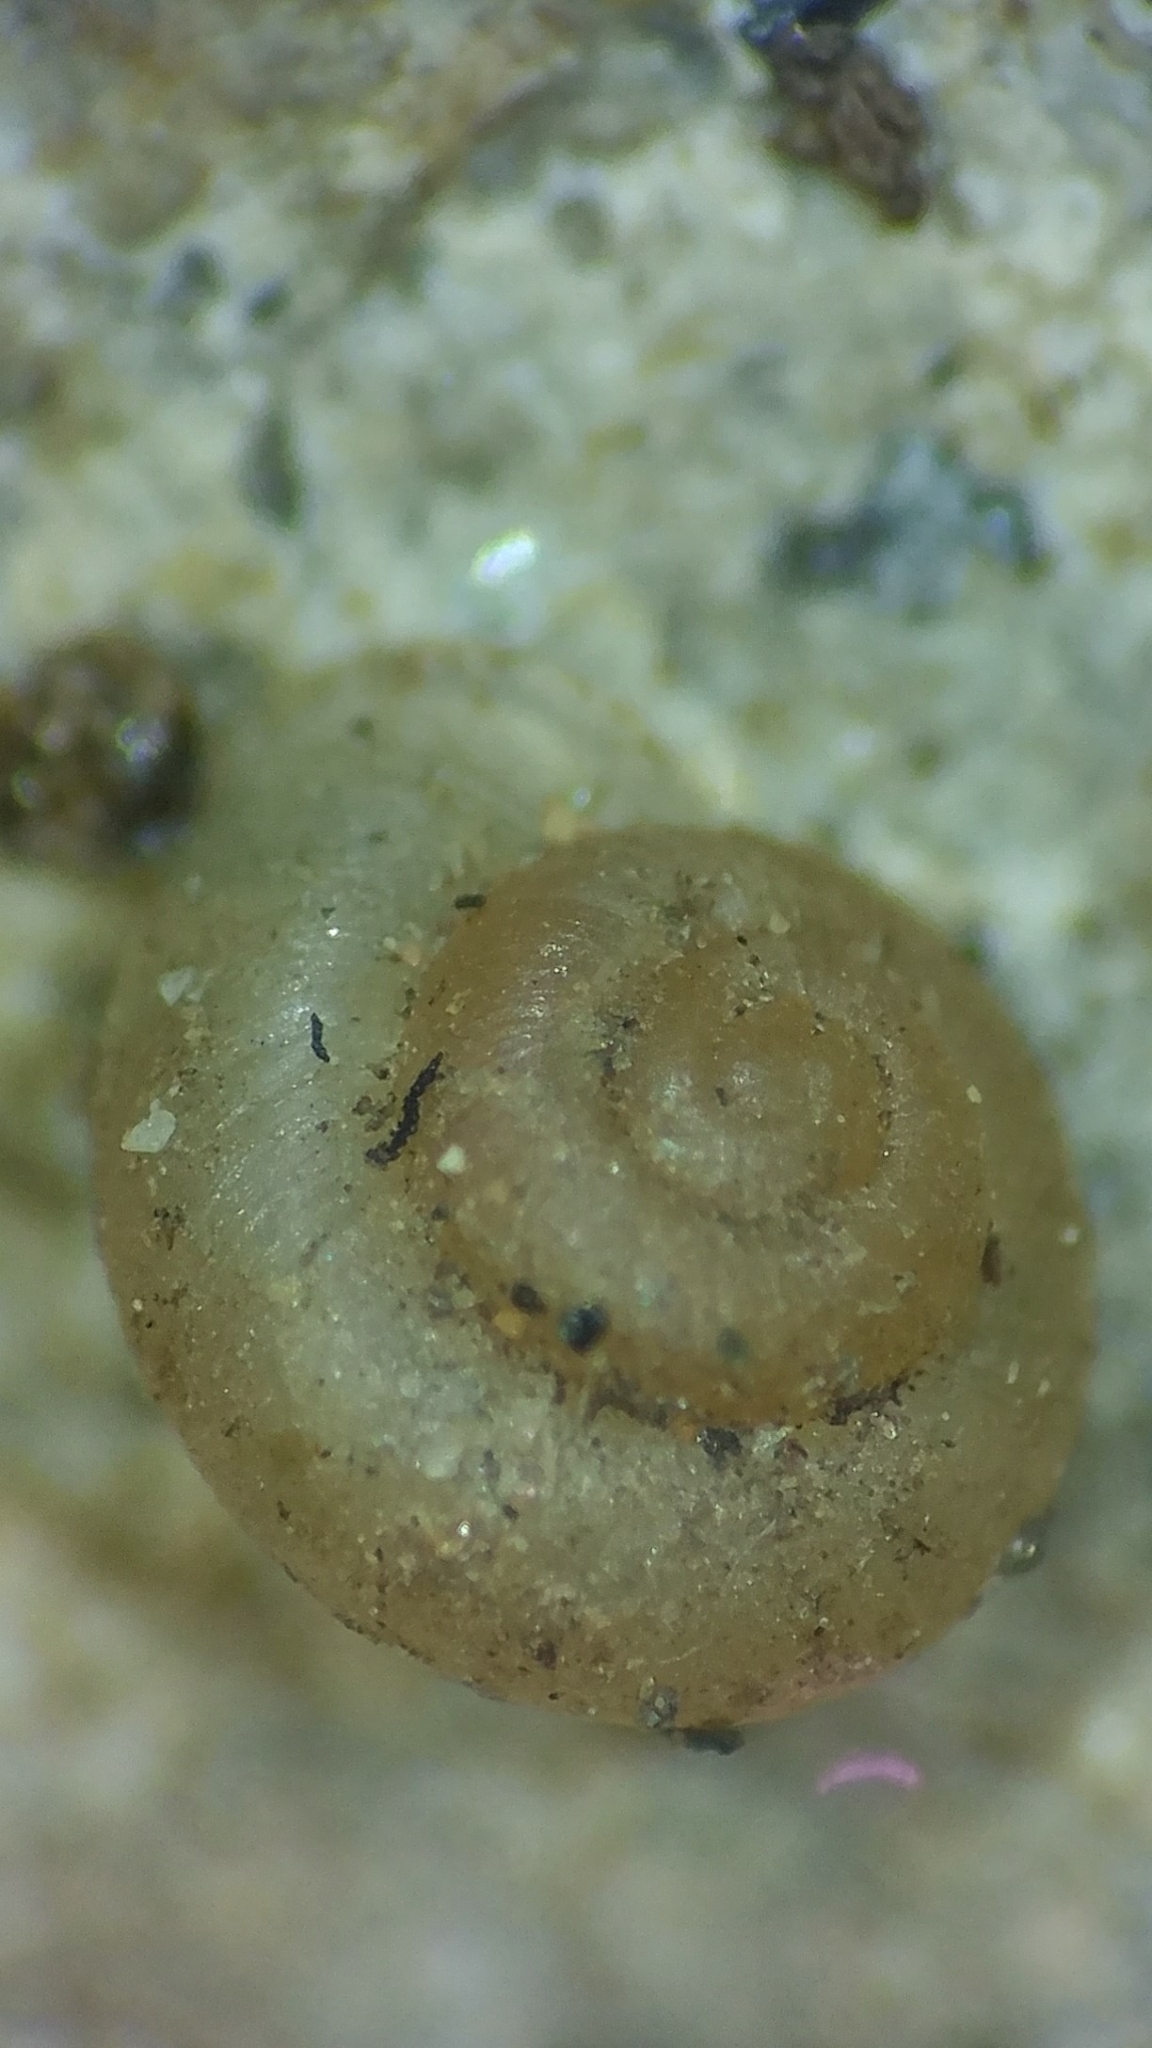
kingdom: Animalia
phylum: Mollusca
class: Gastropoda
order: Stylommatophora
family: Valloniidae
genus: Vallonia
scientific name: Vallonia pulchella
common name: Smooth grass snail
